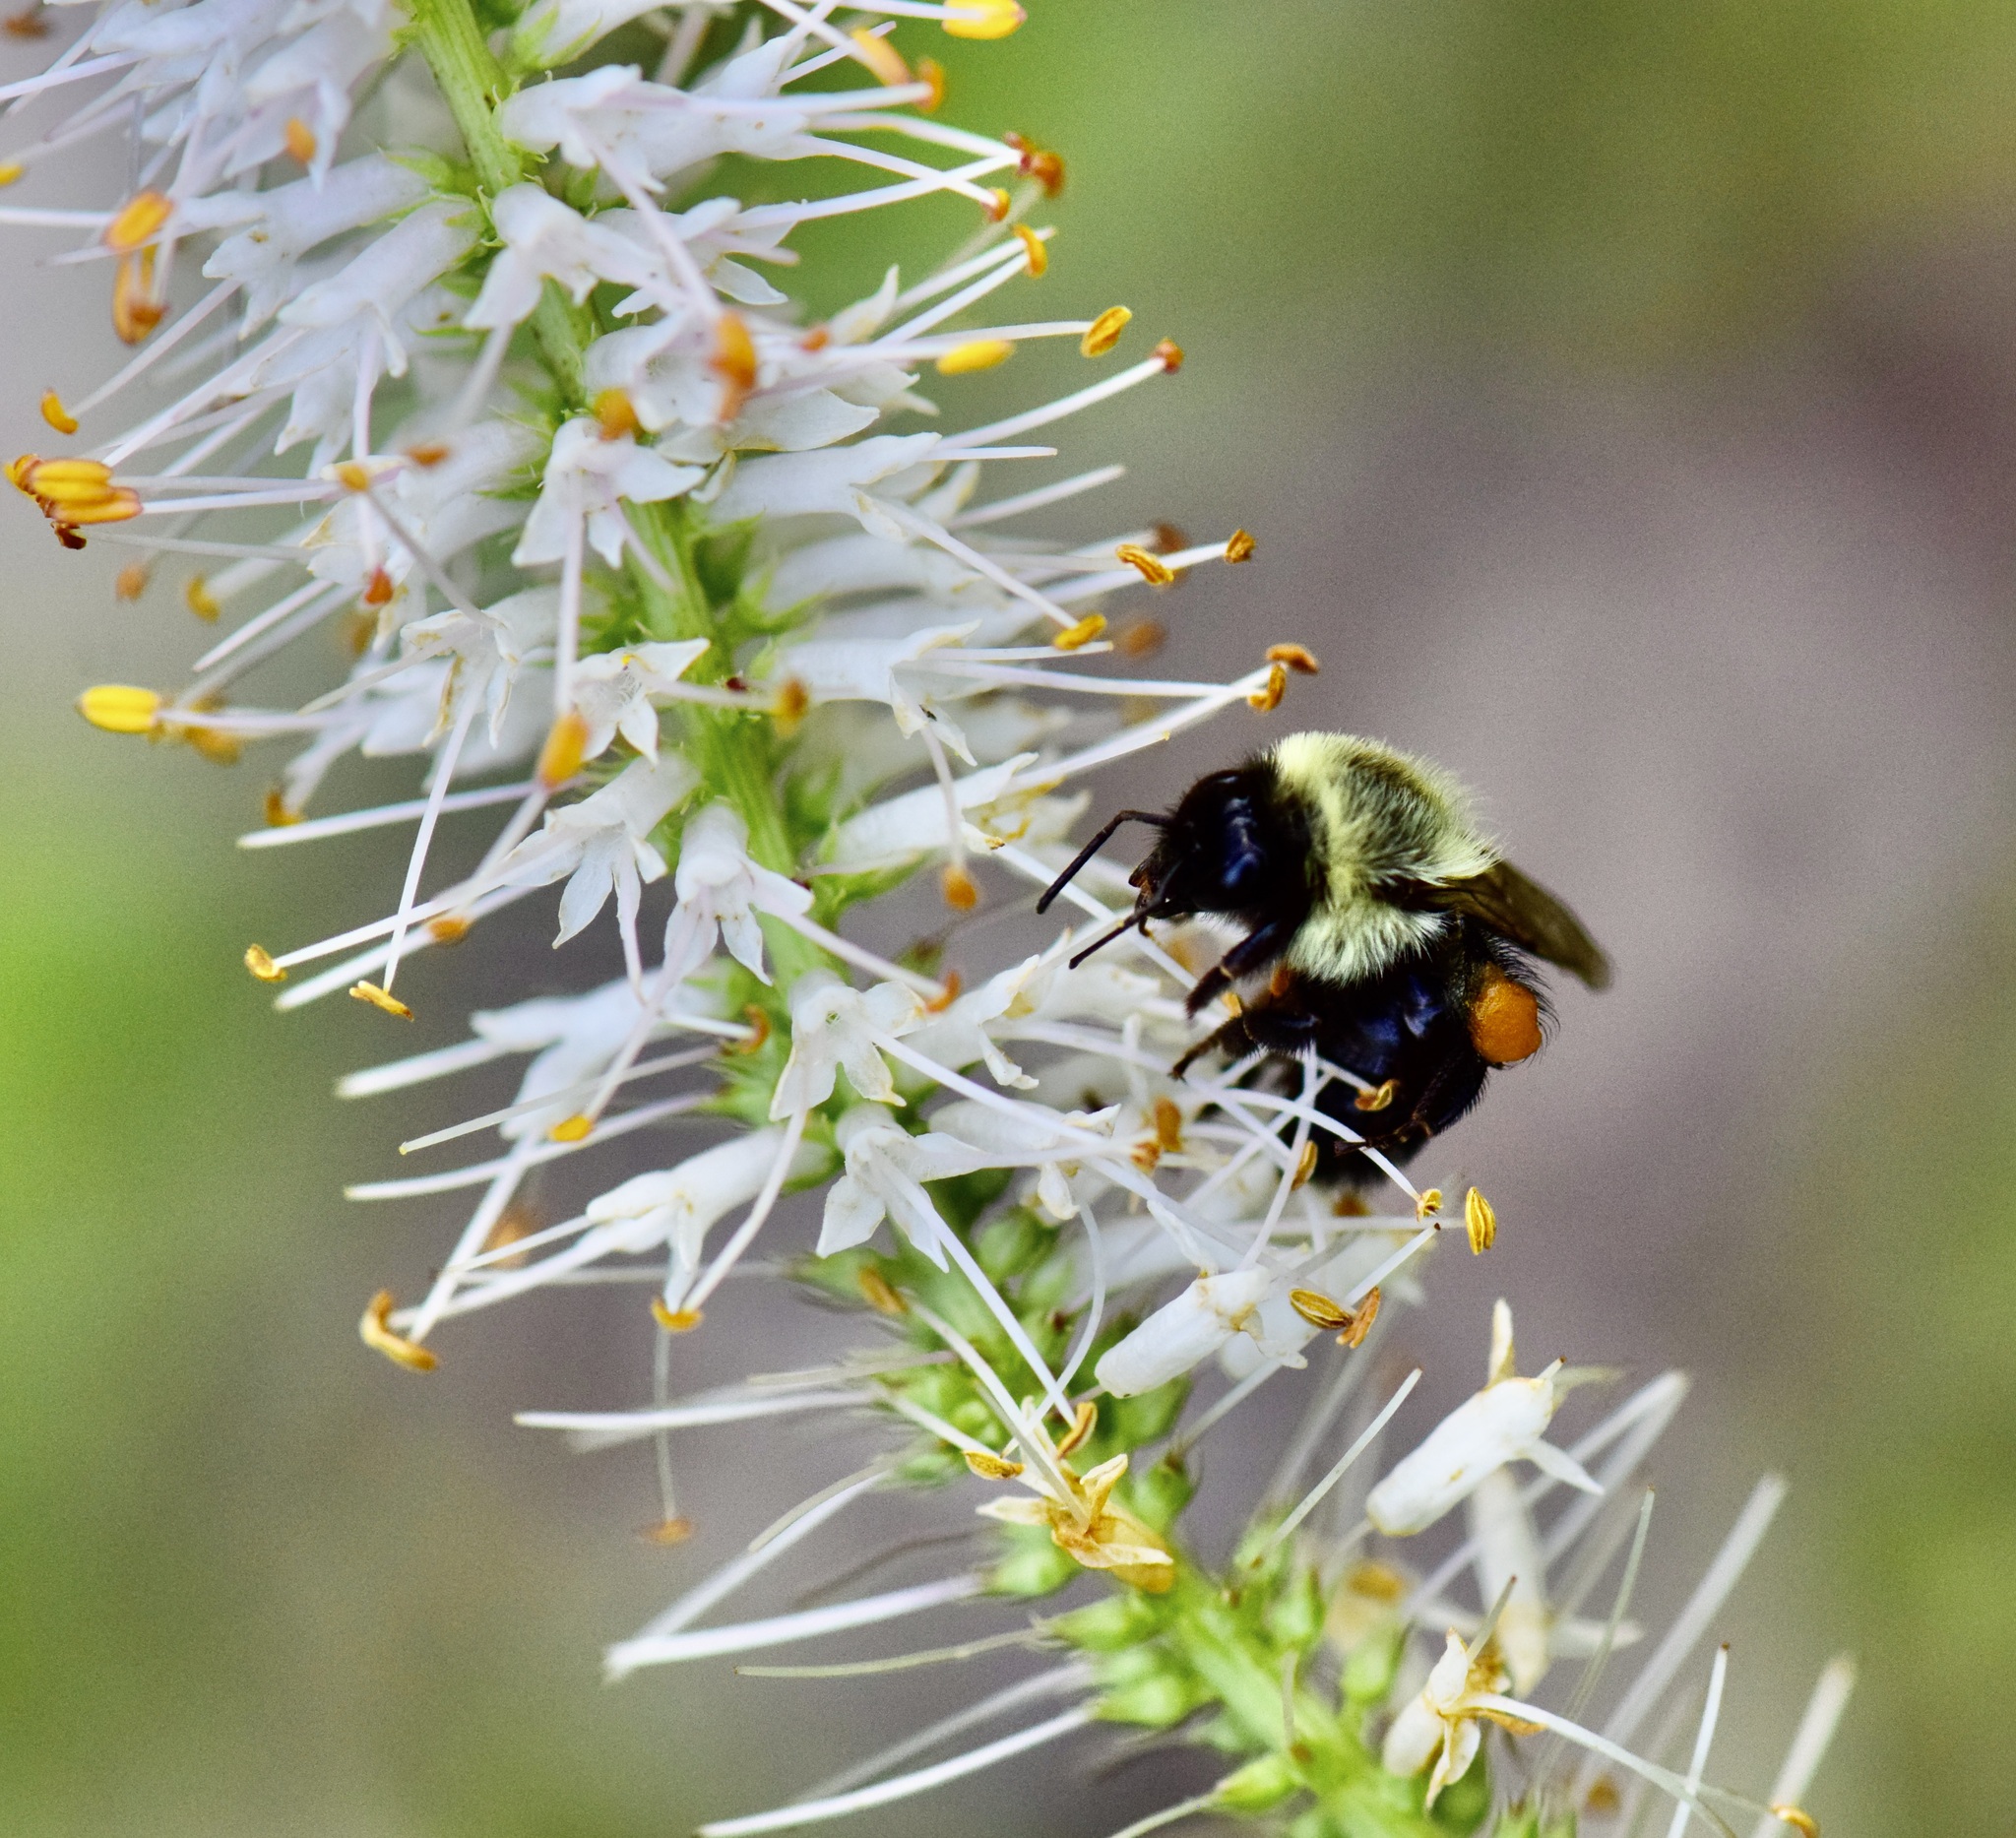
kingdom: Animalia
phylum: Arthropoda
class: Insecta
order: Hymenoptera
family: Apidae
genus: Bombus
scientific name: Bombus impatiens
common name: Common eastern bumble bee
